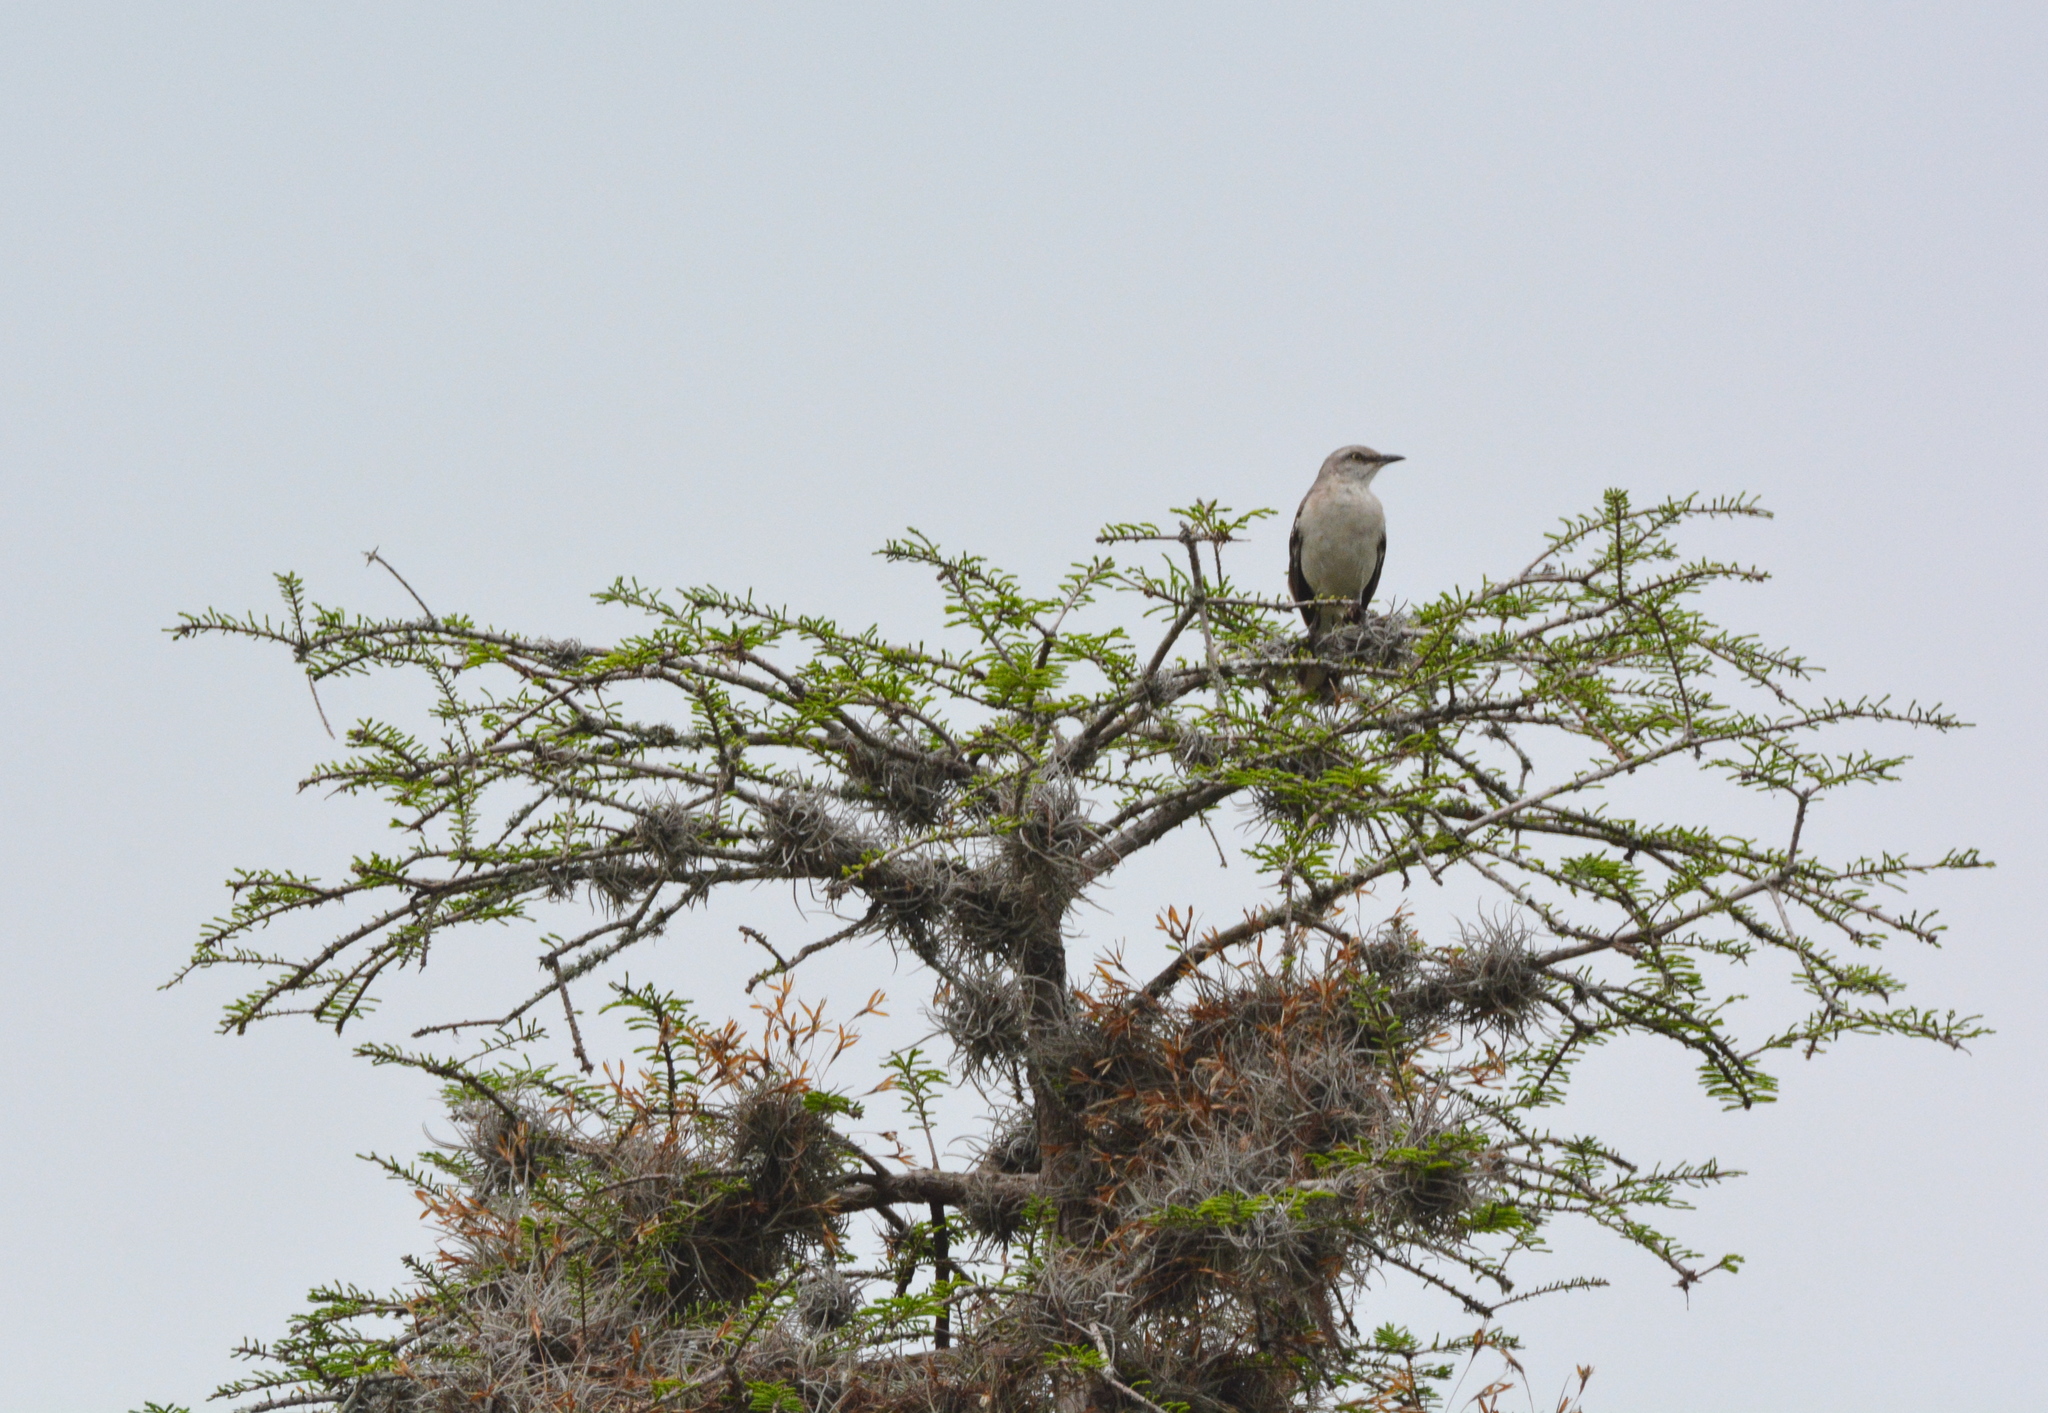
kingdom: Animalia
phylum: Chordata
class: Aves
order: Passeriformes
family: Mimidae
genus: Mimus
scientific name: Mimus polyglottos
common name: Northern mockingbird
